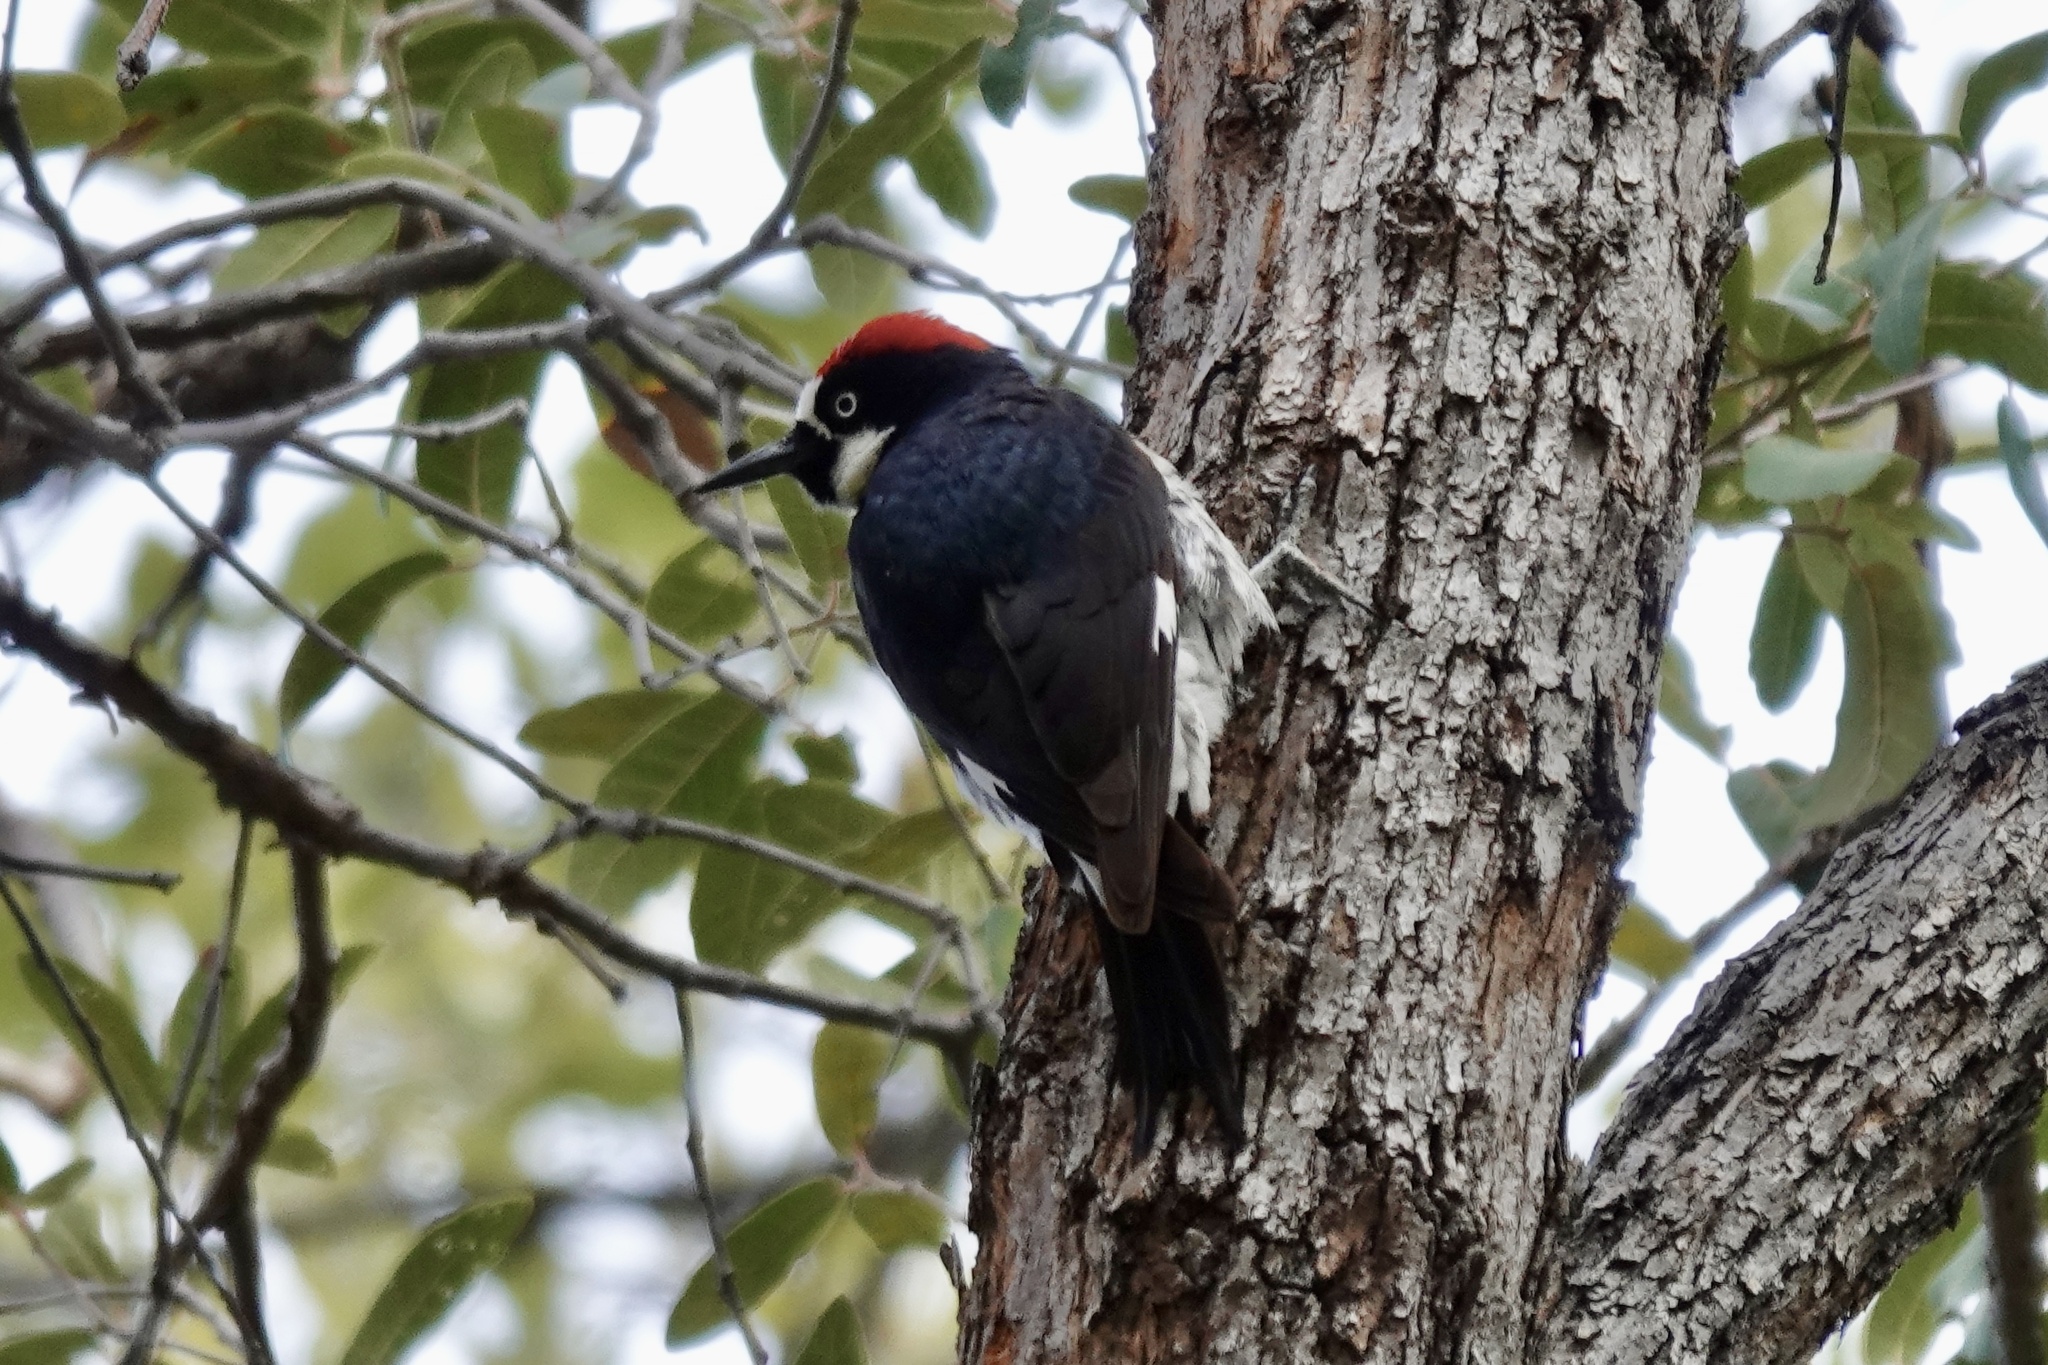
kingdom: Animalia
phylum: Chordata
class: Aves
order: Piciformes
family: Picidae
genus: Melanerpes
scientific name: Melanerpes formicivorus
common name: Acorn woodpecker
